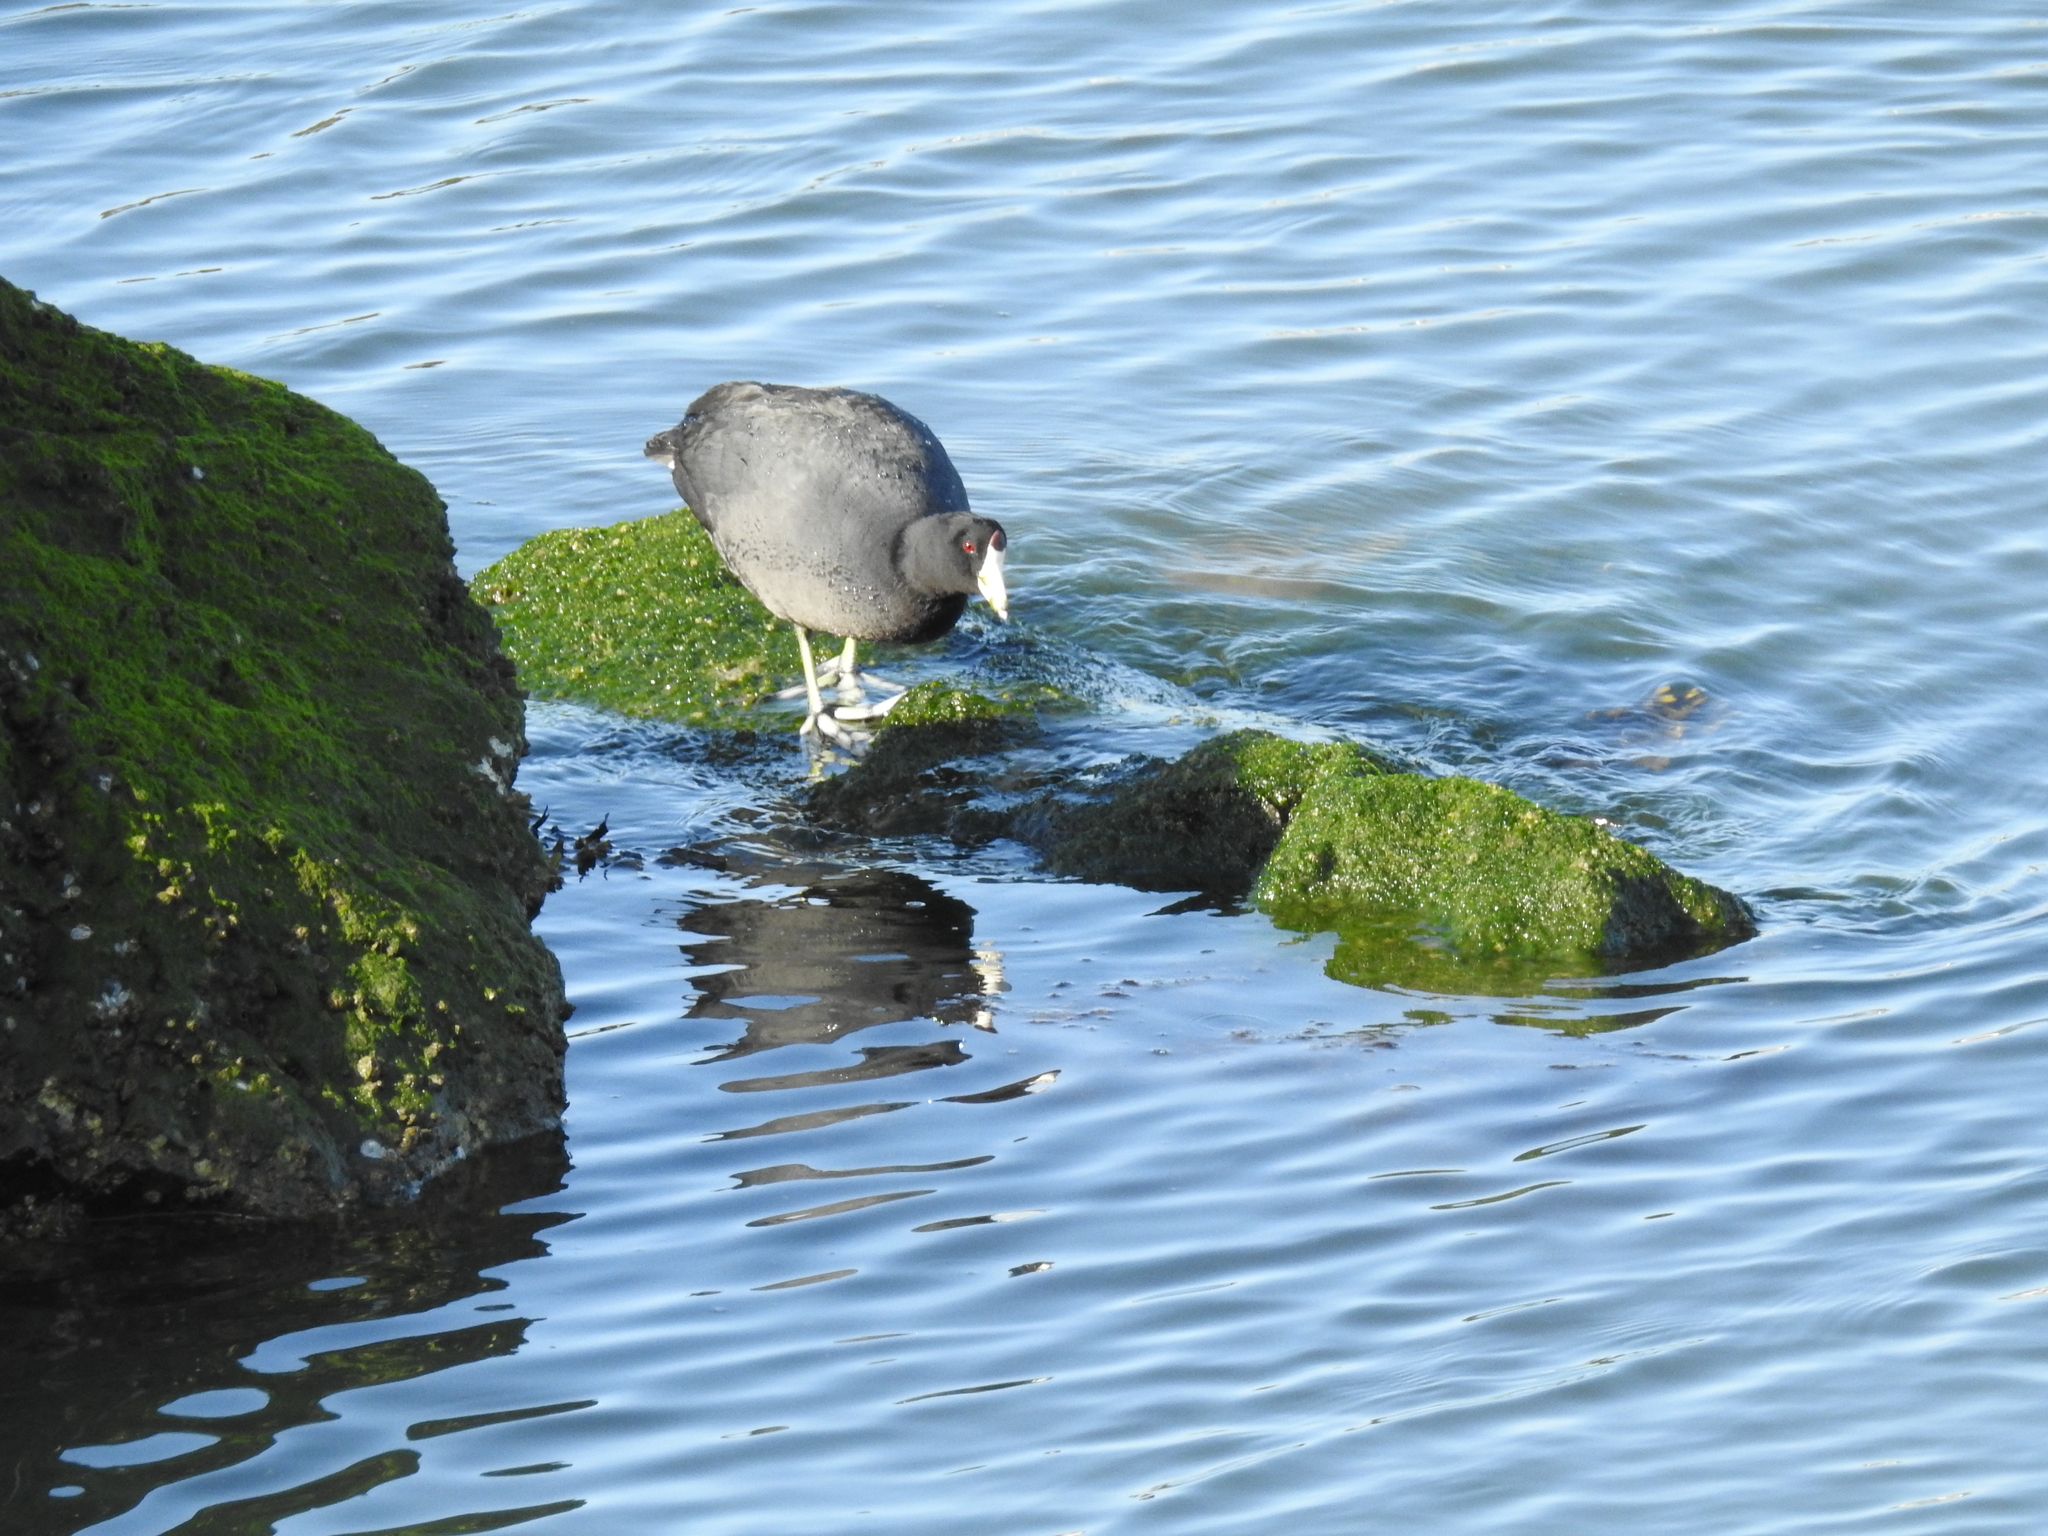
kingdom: Animalia
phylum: Chordata
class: Aves
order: Gruiformes
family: Rallidae
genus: Fulica
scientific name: Fulica americana
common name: American coot
